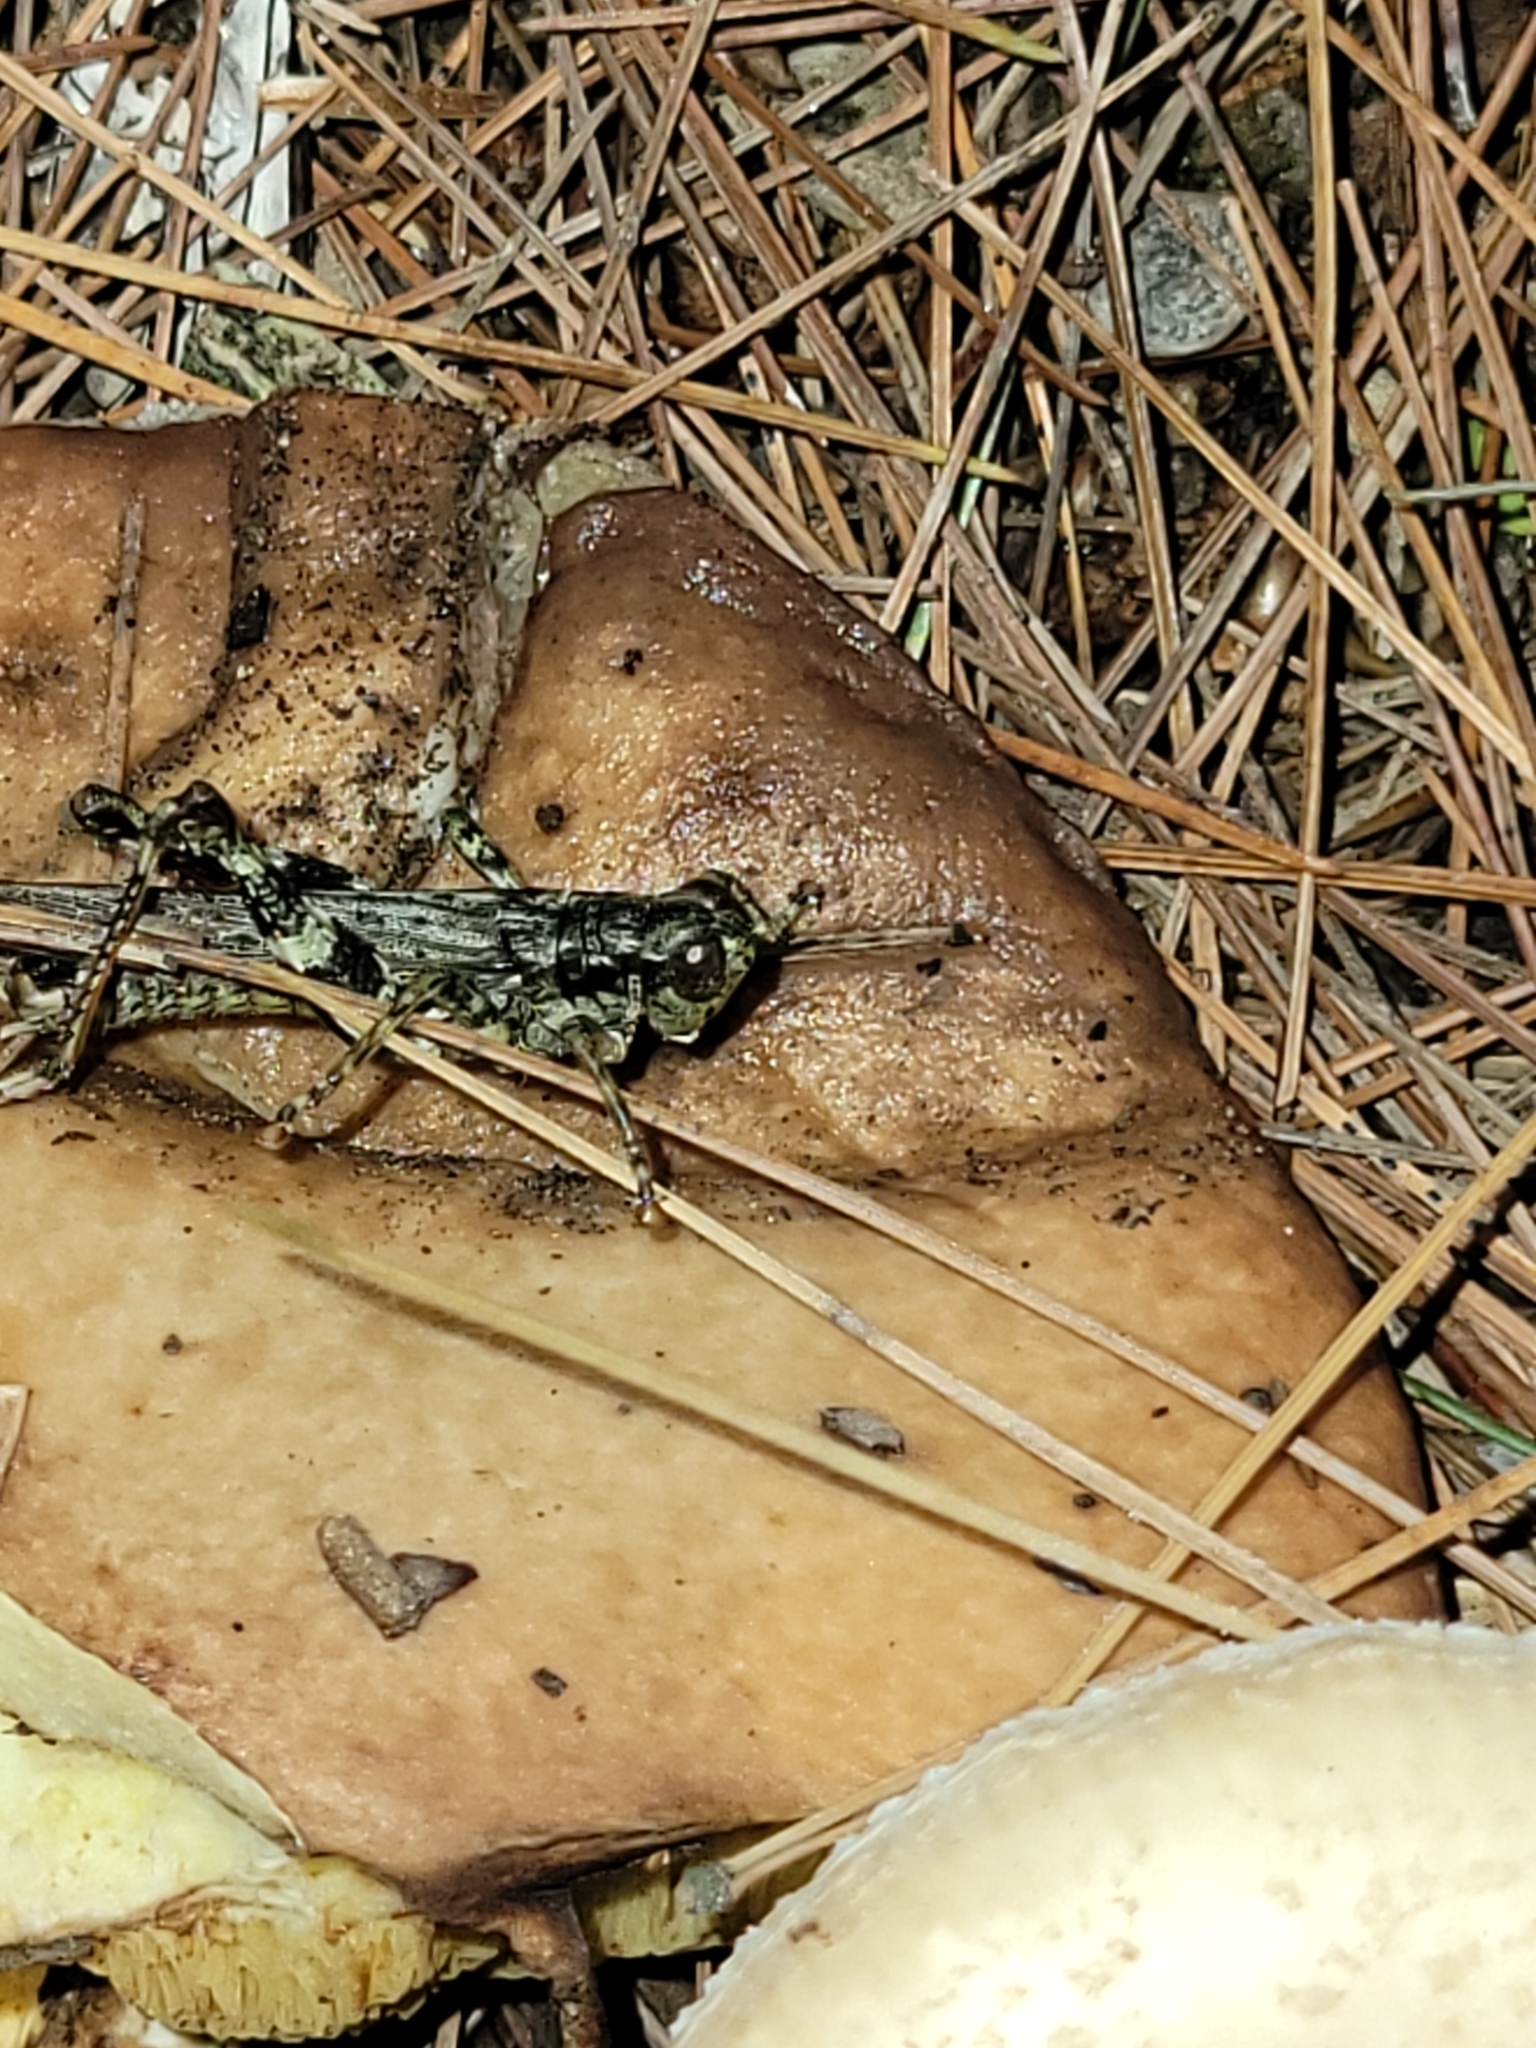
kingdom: Animalia
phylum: Arthropoda
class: Insecta
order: Orthoptera
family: Acrididae
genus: Melanoplus
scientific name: Melanoplus punctulatus
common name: Pine-tree spur-throat grasshopper
